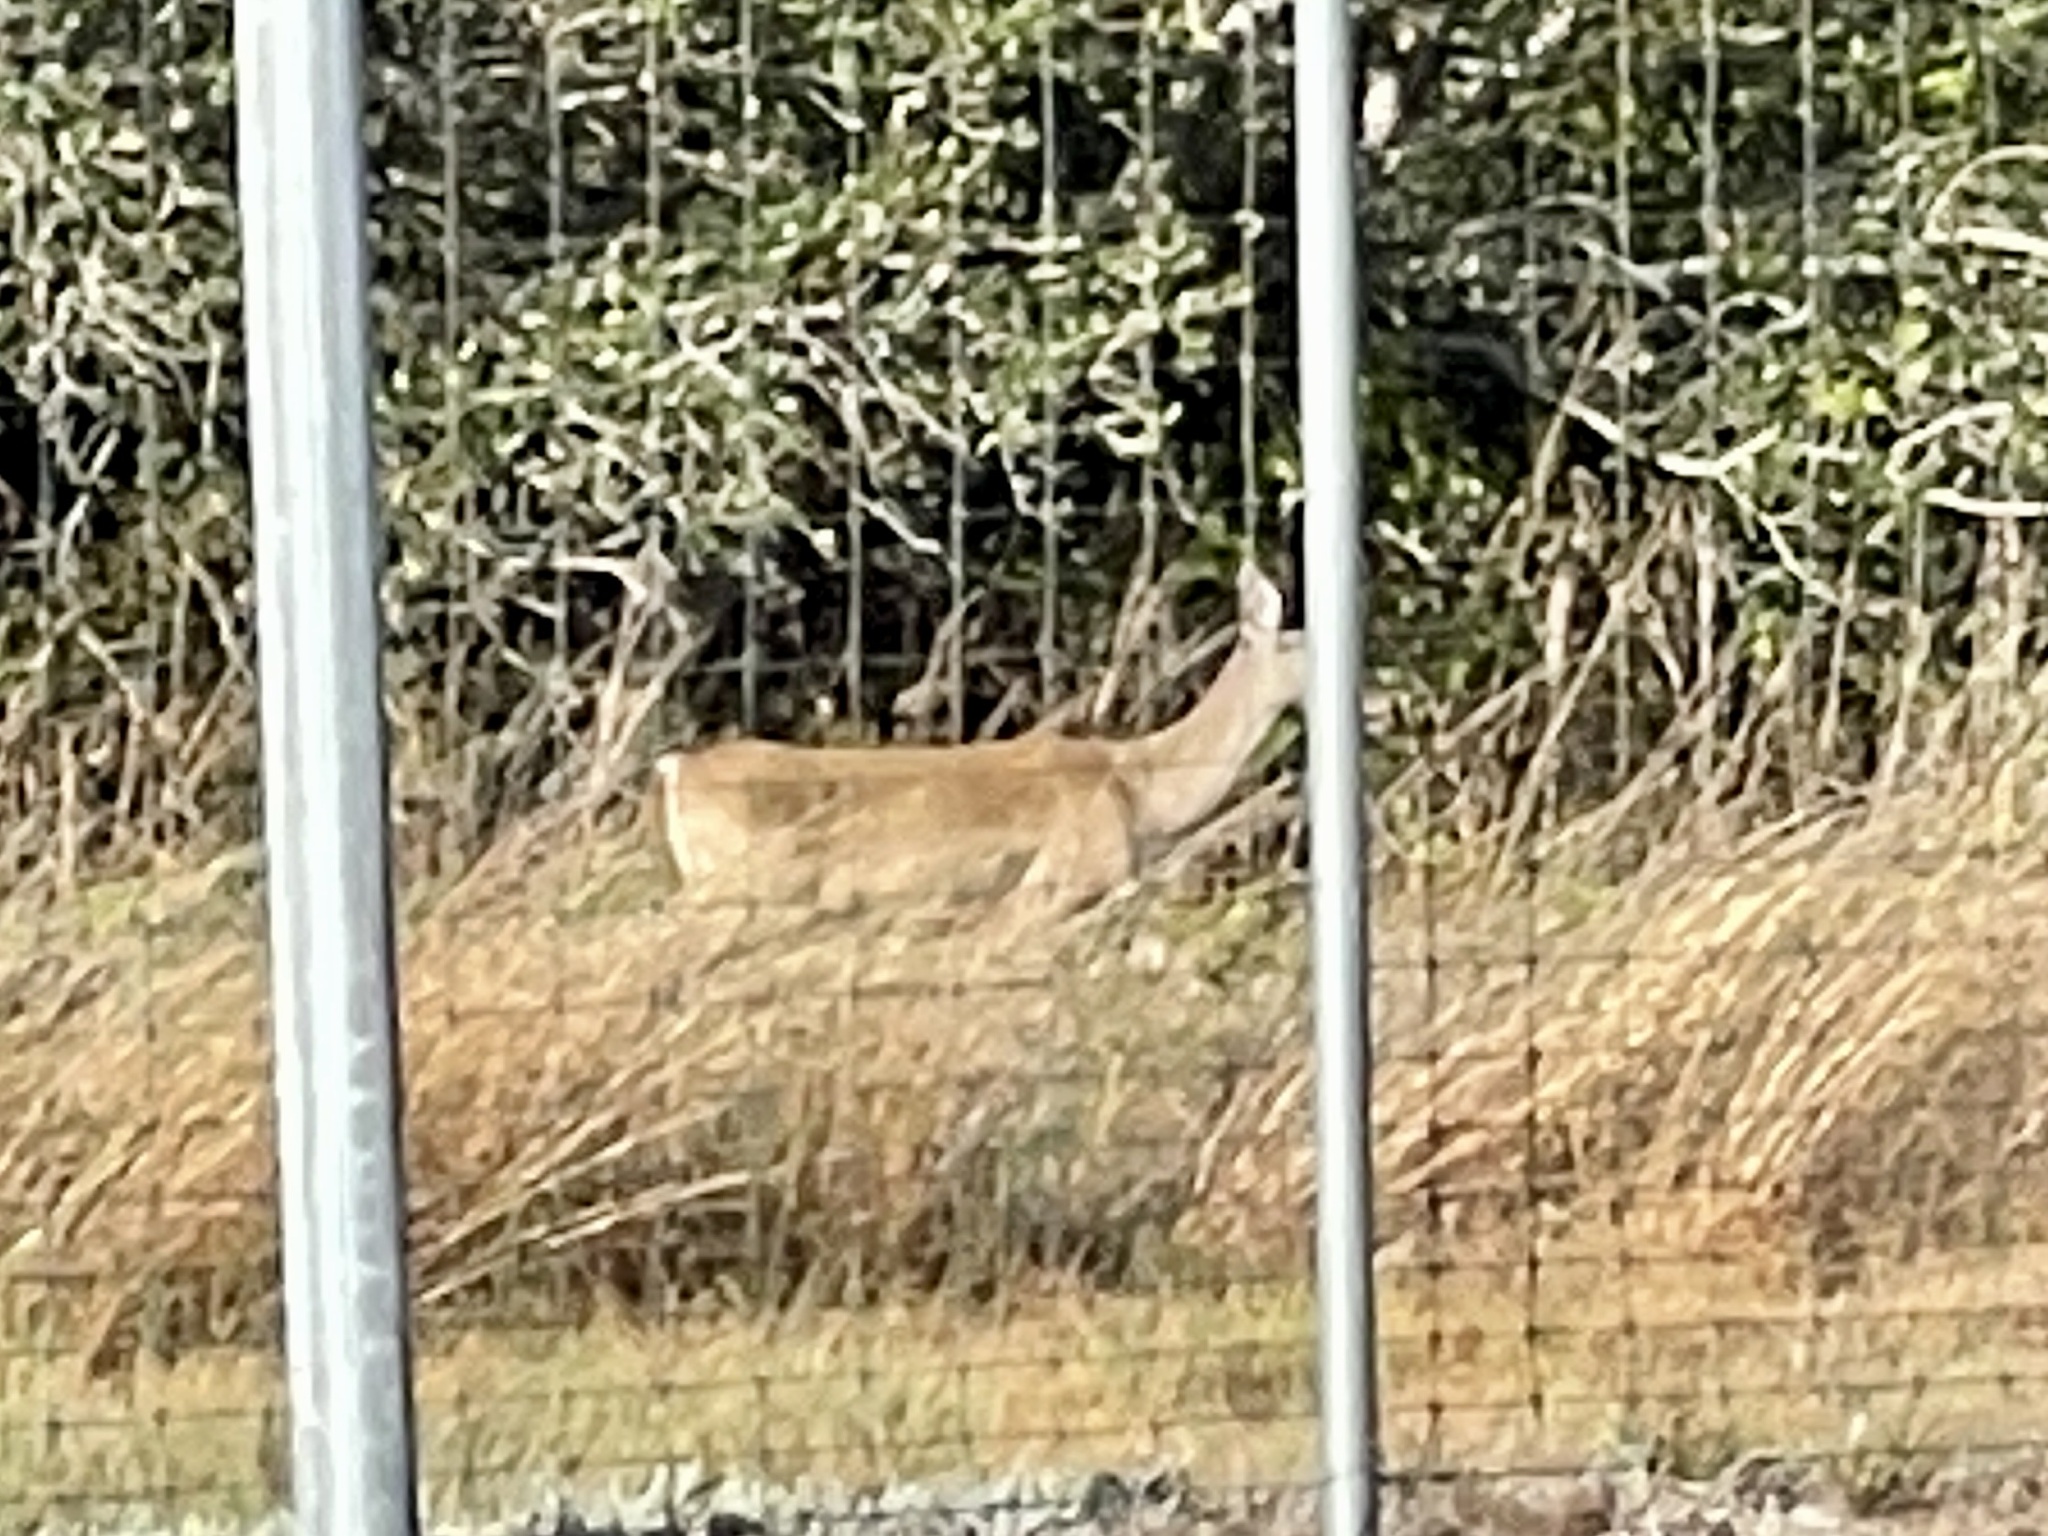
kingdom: Animalia
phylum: Chordata
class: Mammalia
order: Artiodactyla
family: Cervidae
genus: Odocoileus
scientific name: Odocoileus virginianus
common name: White-tailed deer
